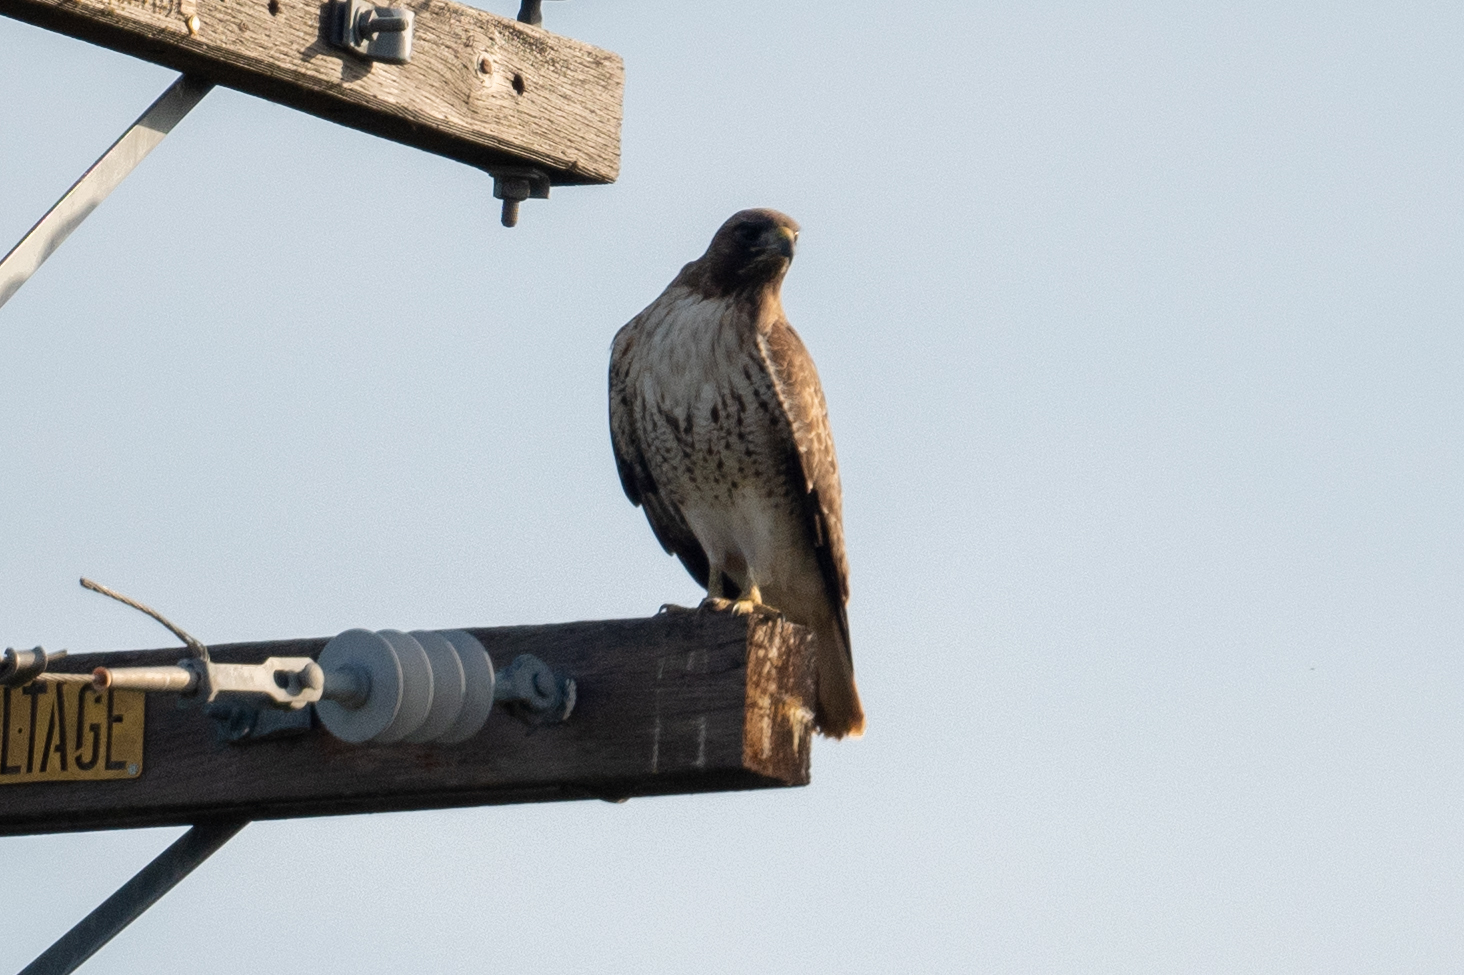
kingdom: Animalia
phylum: Chordata
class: Aves
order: Accipitriformes
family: Accipitridae
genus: Buteo
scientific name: Buteo jamaicensis
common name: Red-tailed hawk
